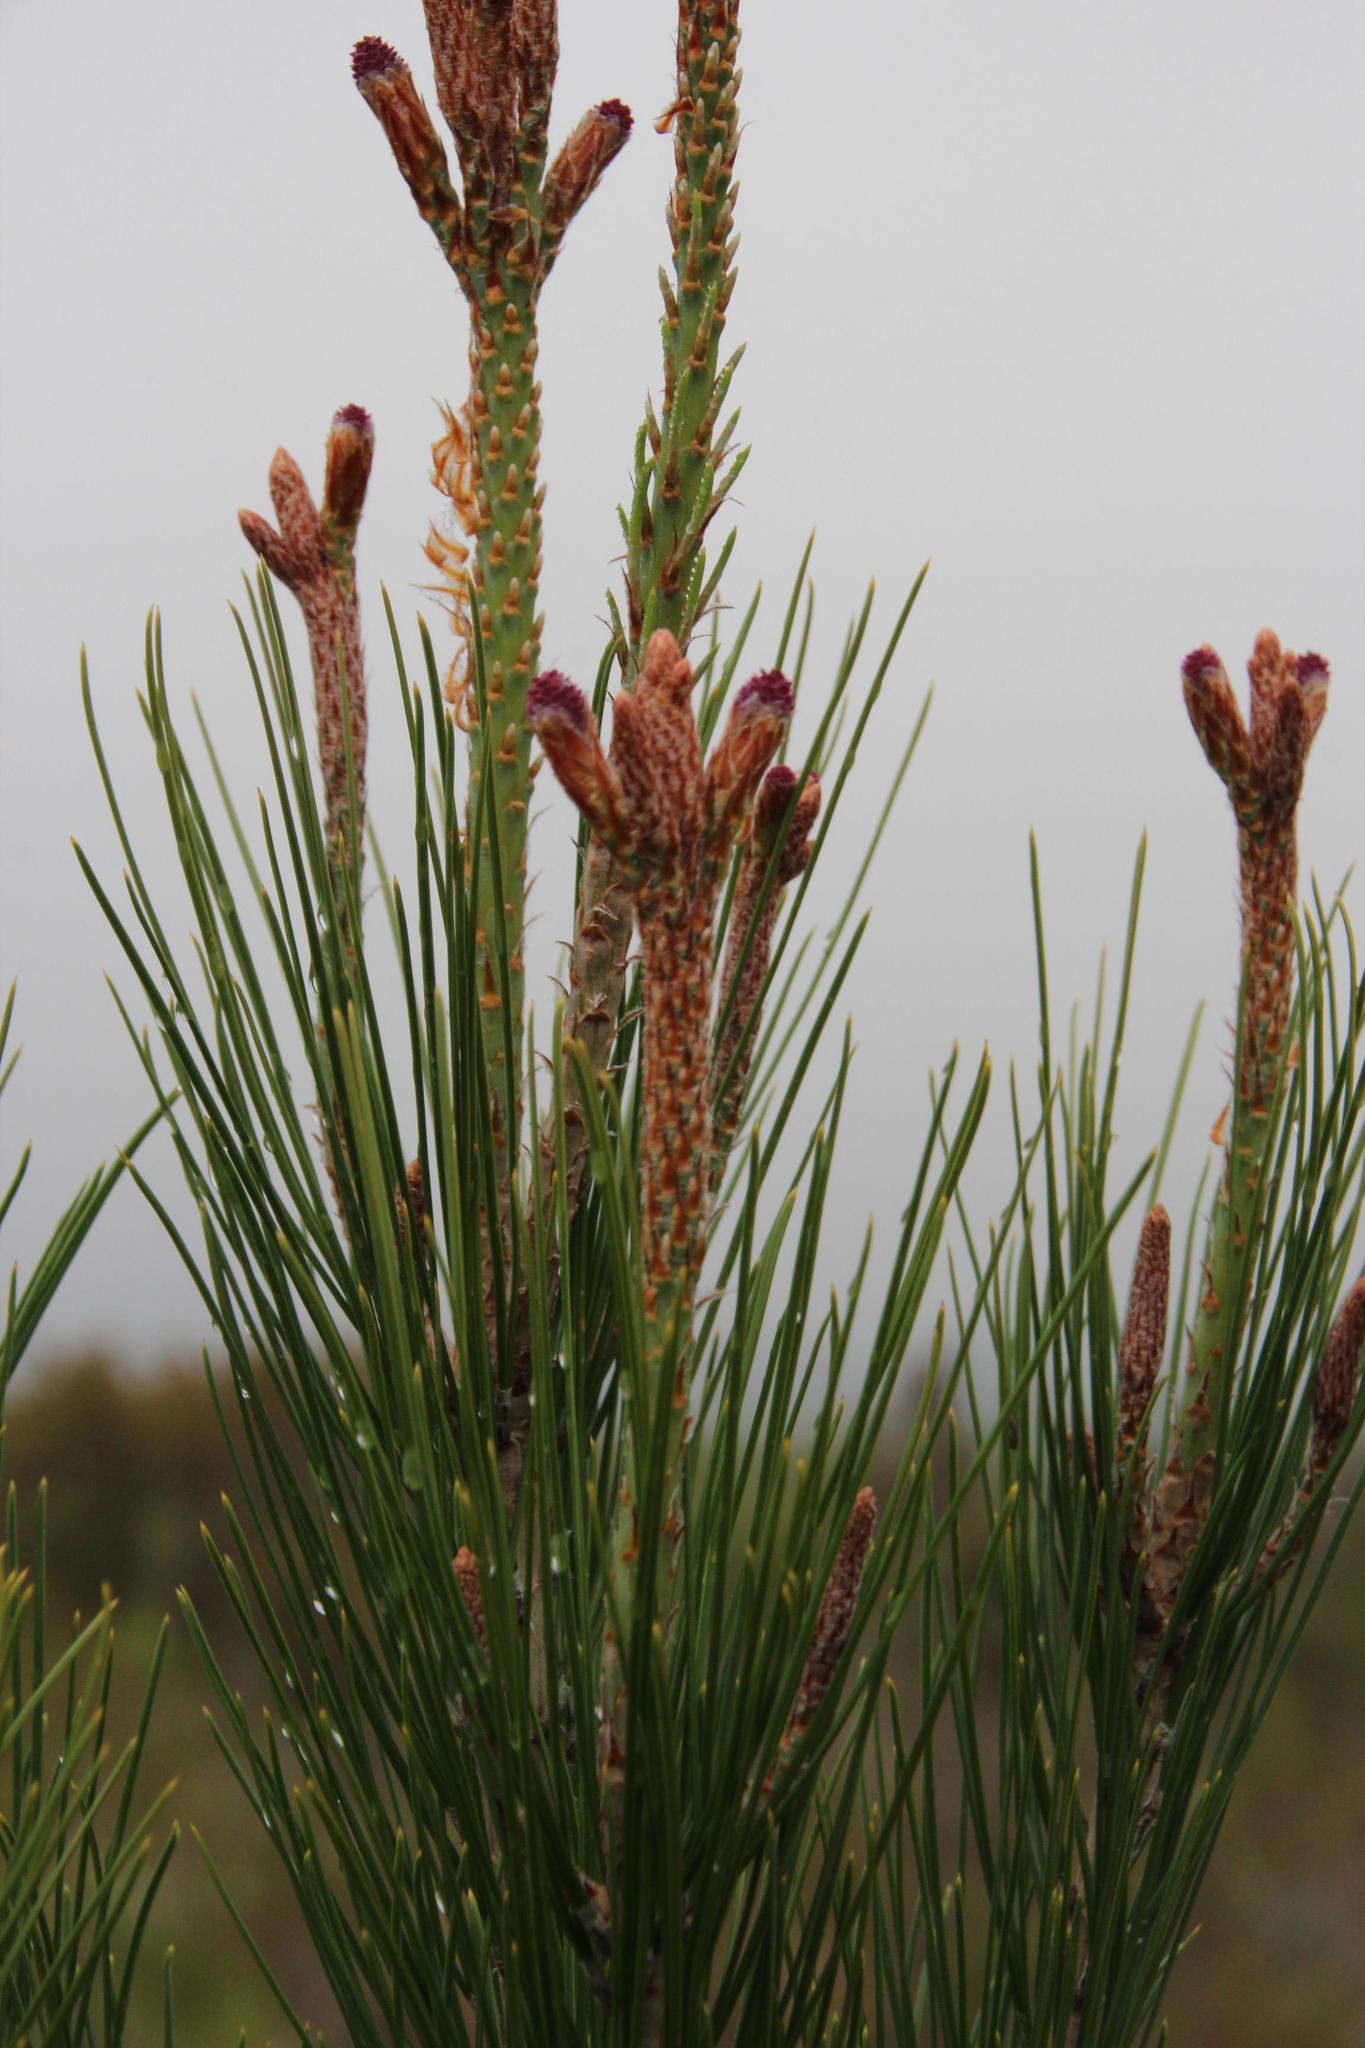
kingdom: Plantae
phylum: Tracheophyta
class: Pinopsida
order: Pinales
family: Pinaceae
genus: Pinus
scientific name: Pinus halepensis
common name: Aleppo pine
